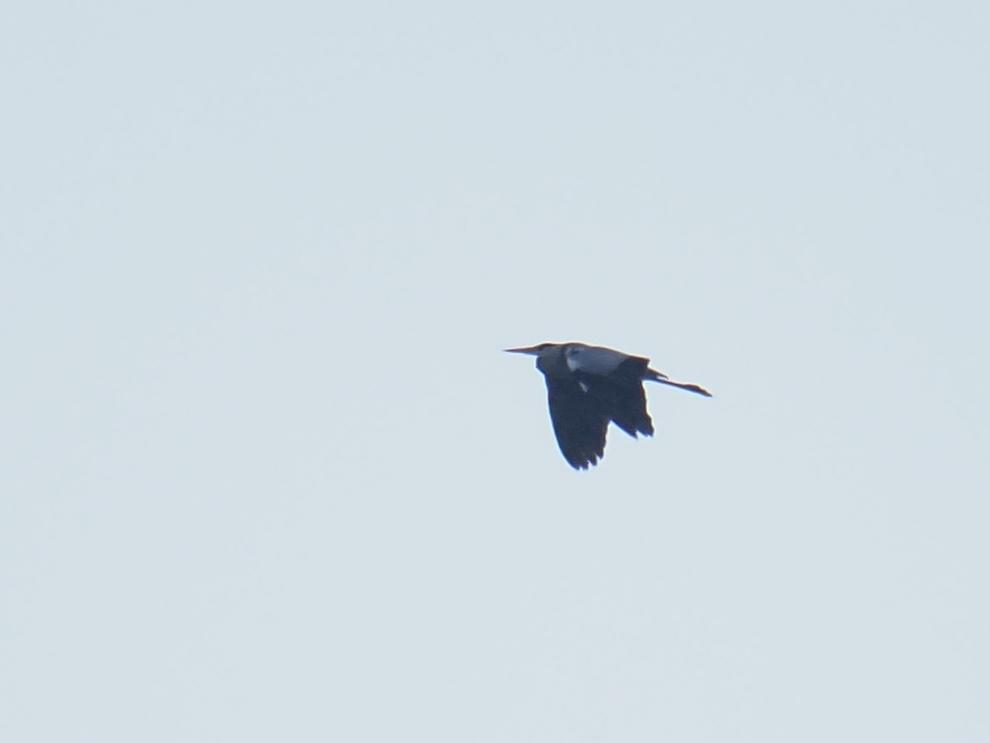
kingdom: Animalia
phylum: Chordata
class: Aves
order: Pelecaniformes
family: Ardeidae
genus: Ardea
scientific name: Ardea cinerea
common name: Grey heron
